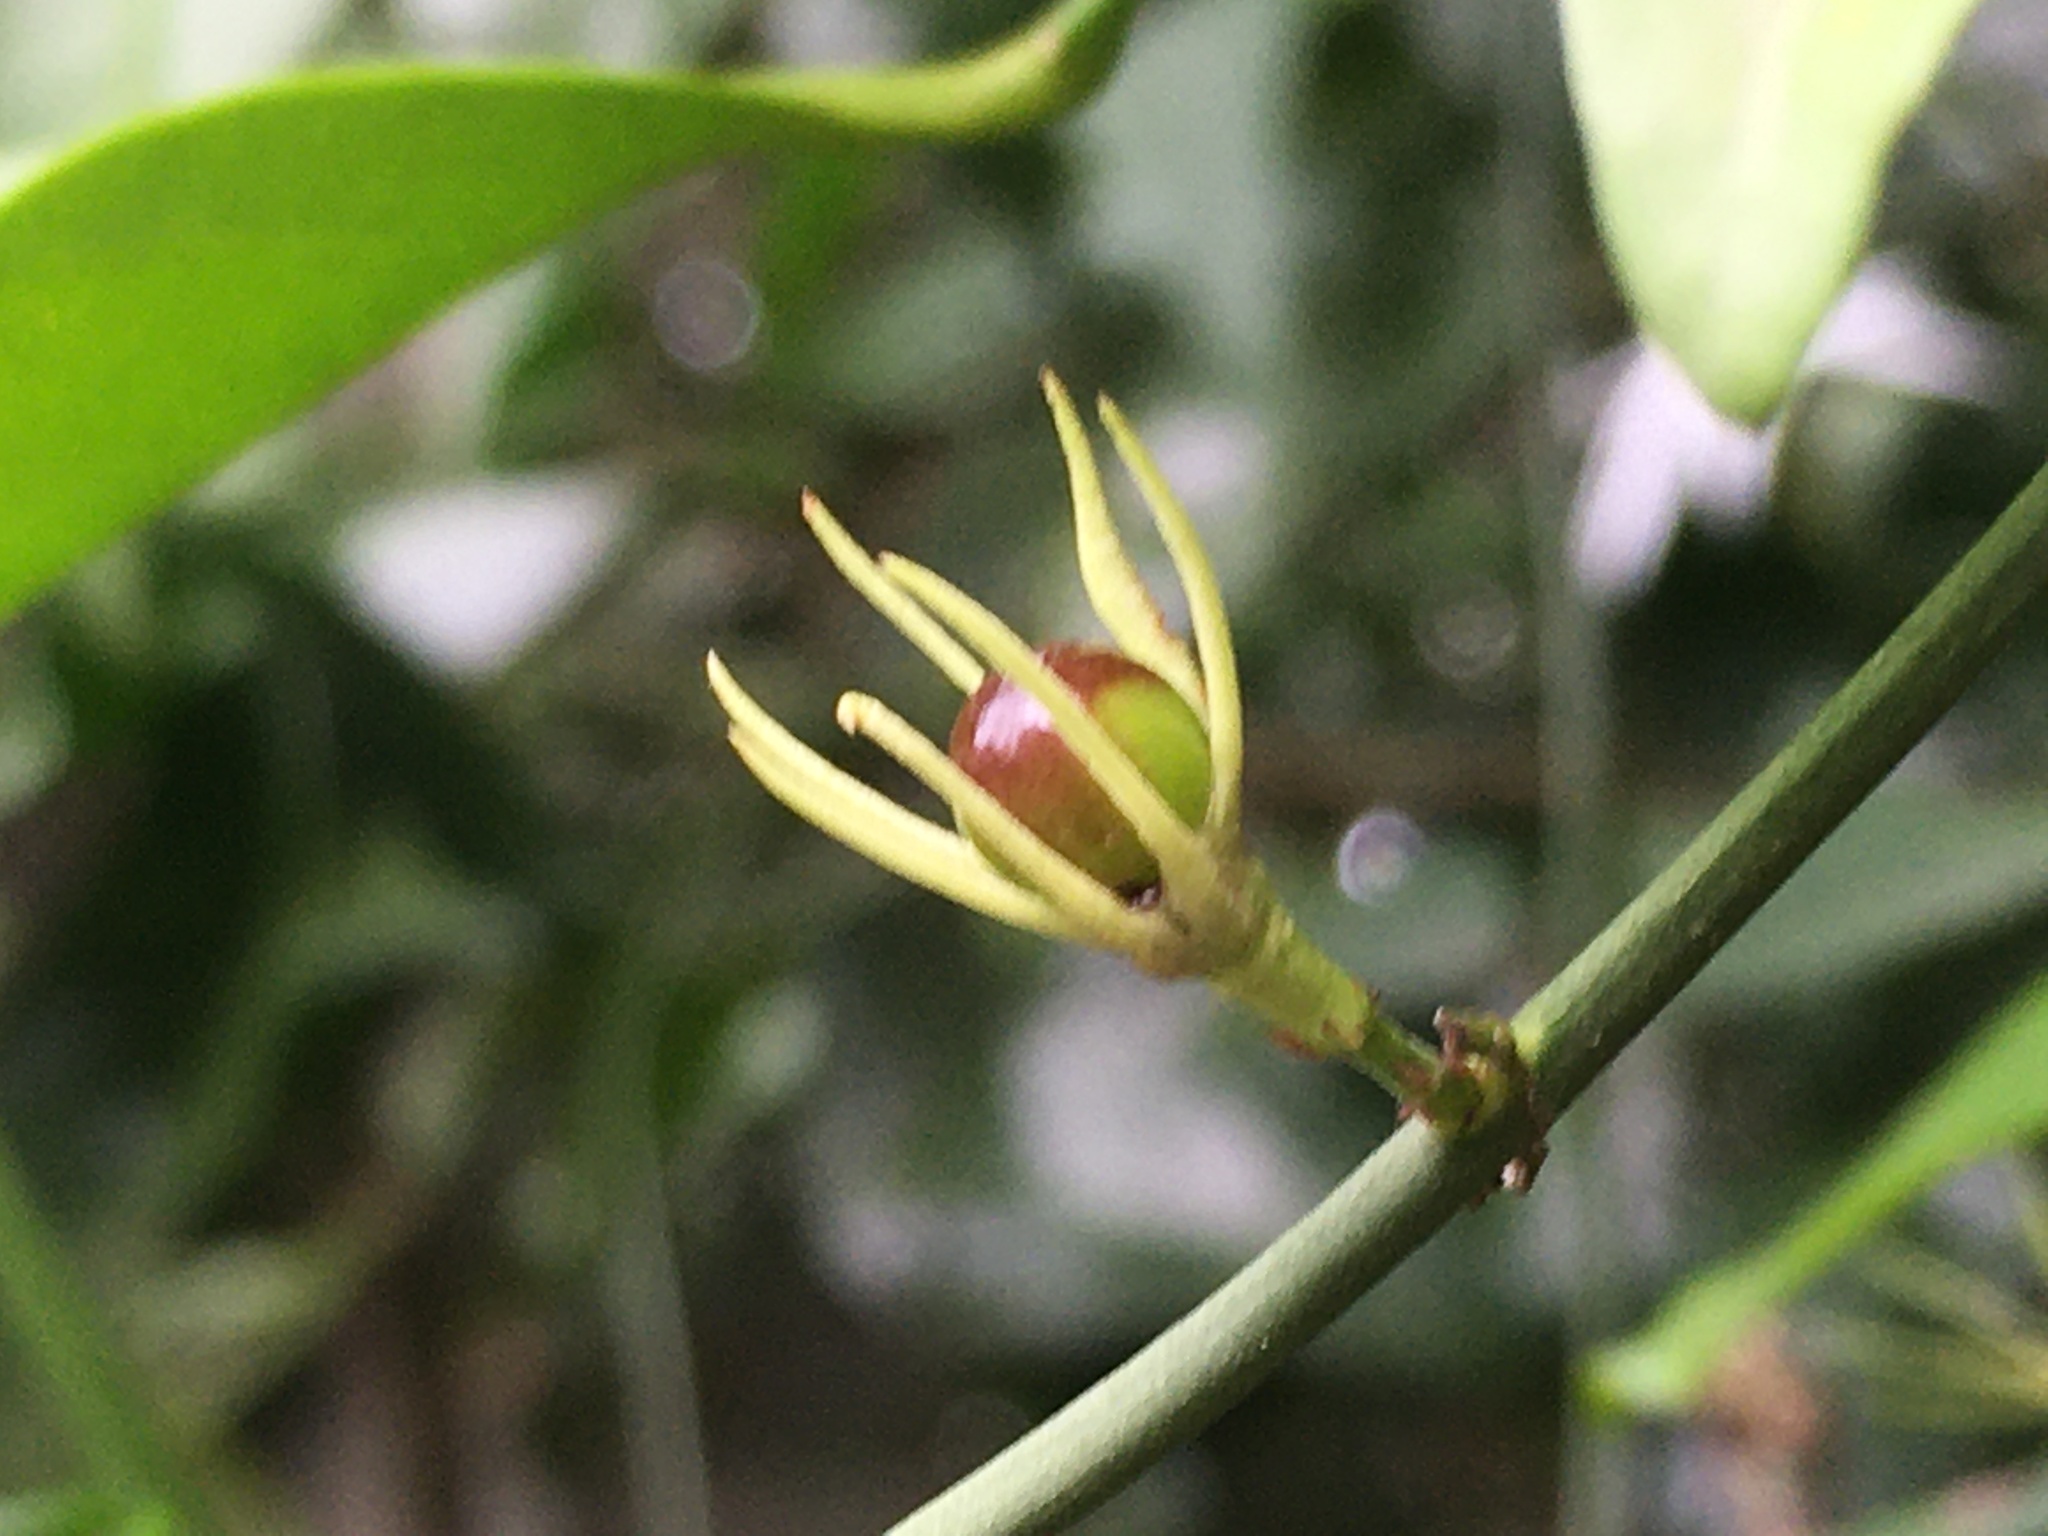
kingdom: Plantae
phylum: Tracheophyta
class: Magnoliopsida
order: Lamiales
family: Oleaceae
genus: Jasminum
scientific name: Jasminum nervosum
